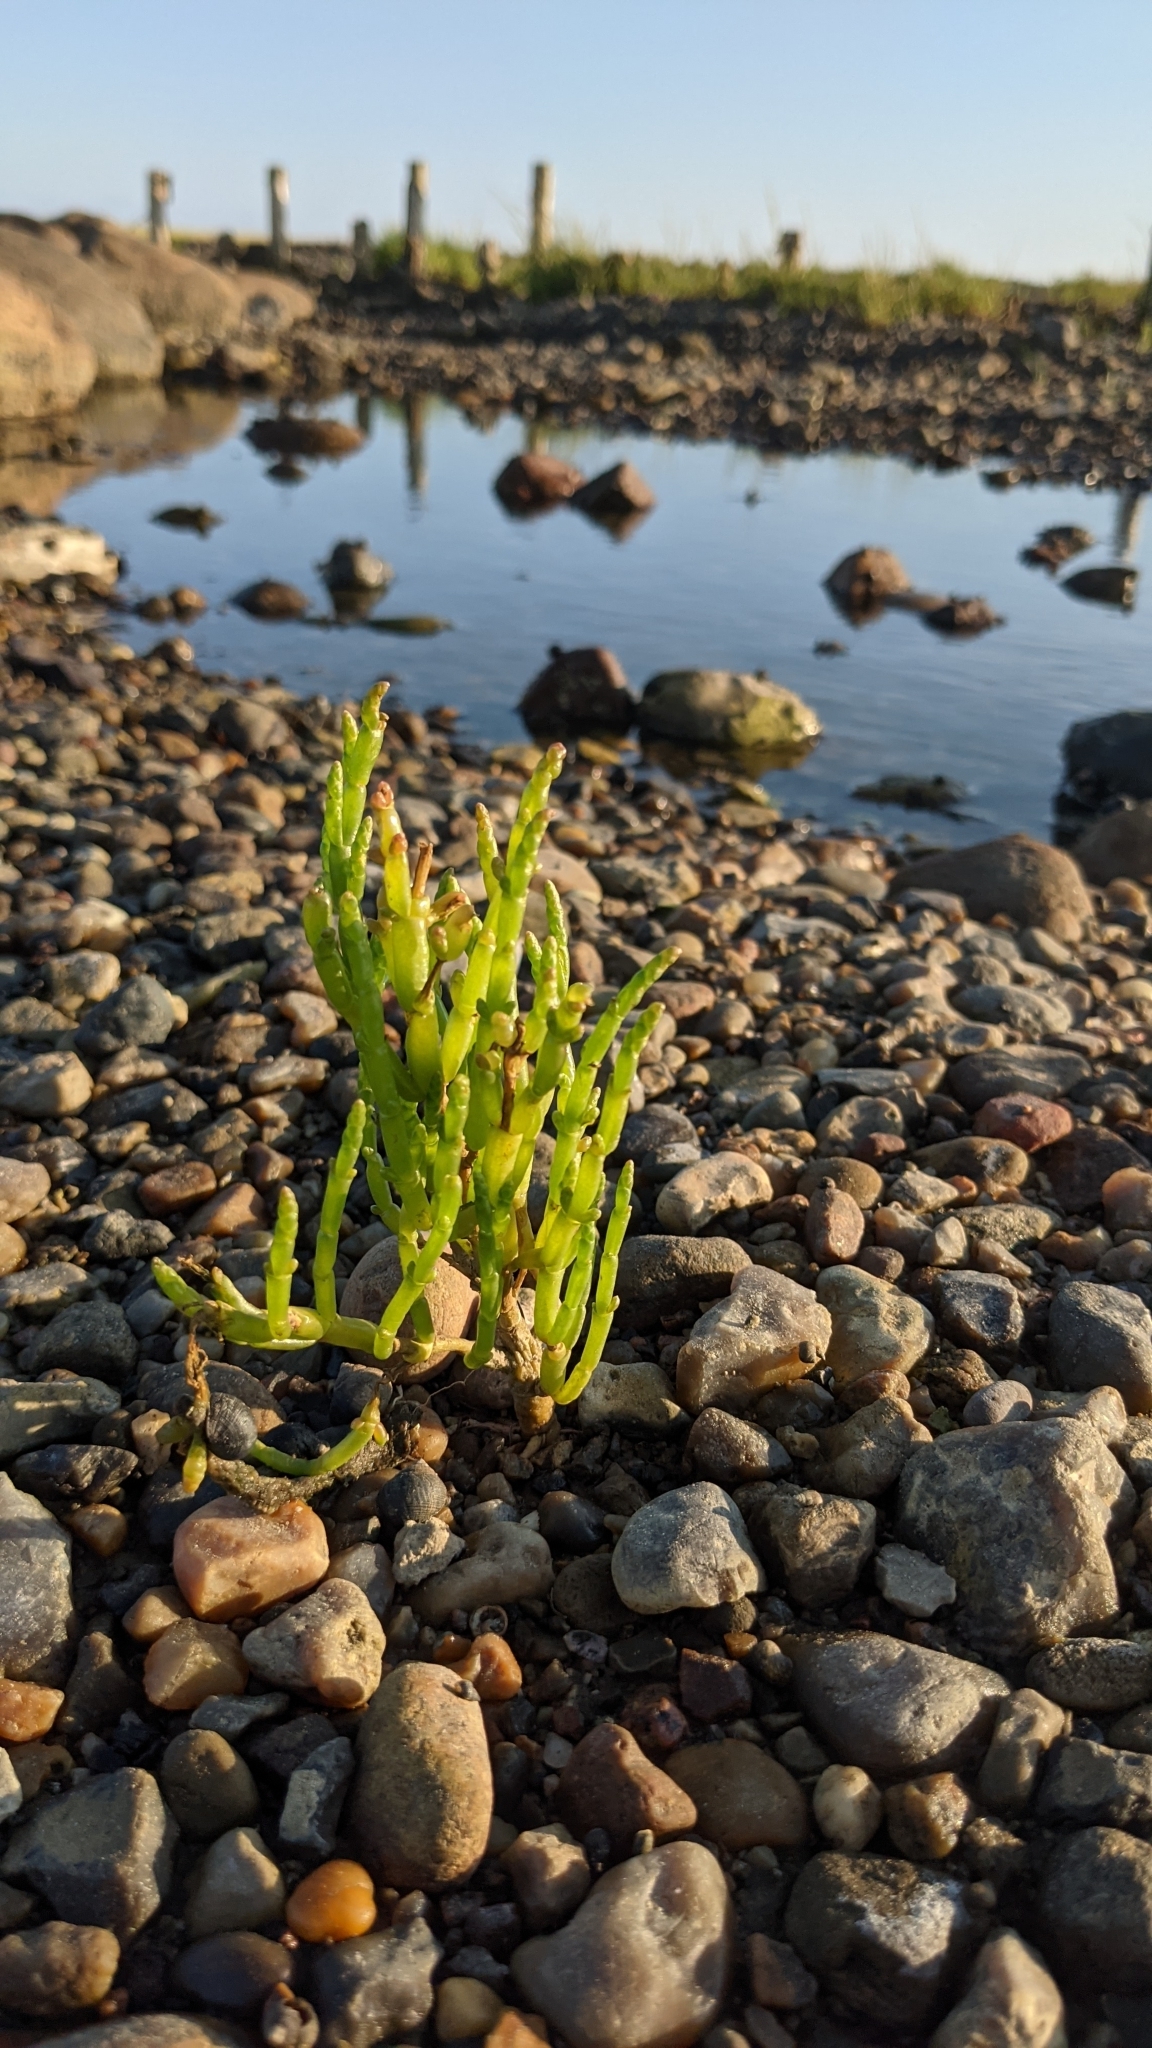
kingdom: Plantae
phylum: Tracheophyta
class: Magnoliopsida
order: Caryophyllales
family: Amaranthaceae
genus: Salicornia
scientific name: Salicornia europaea
